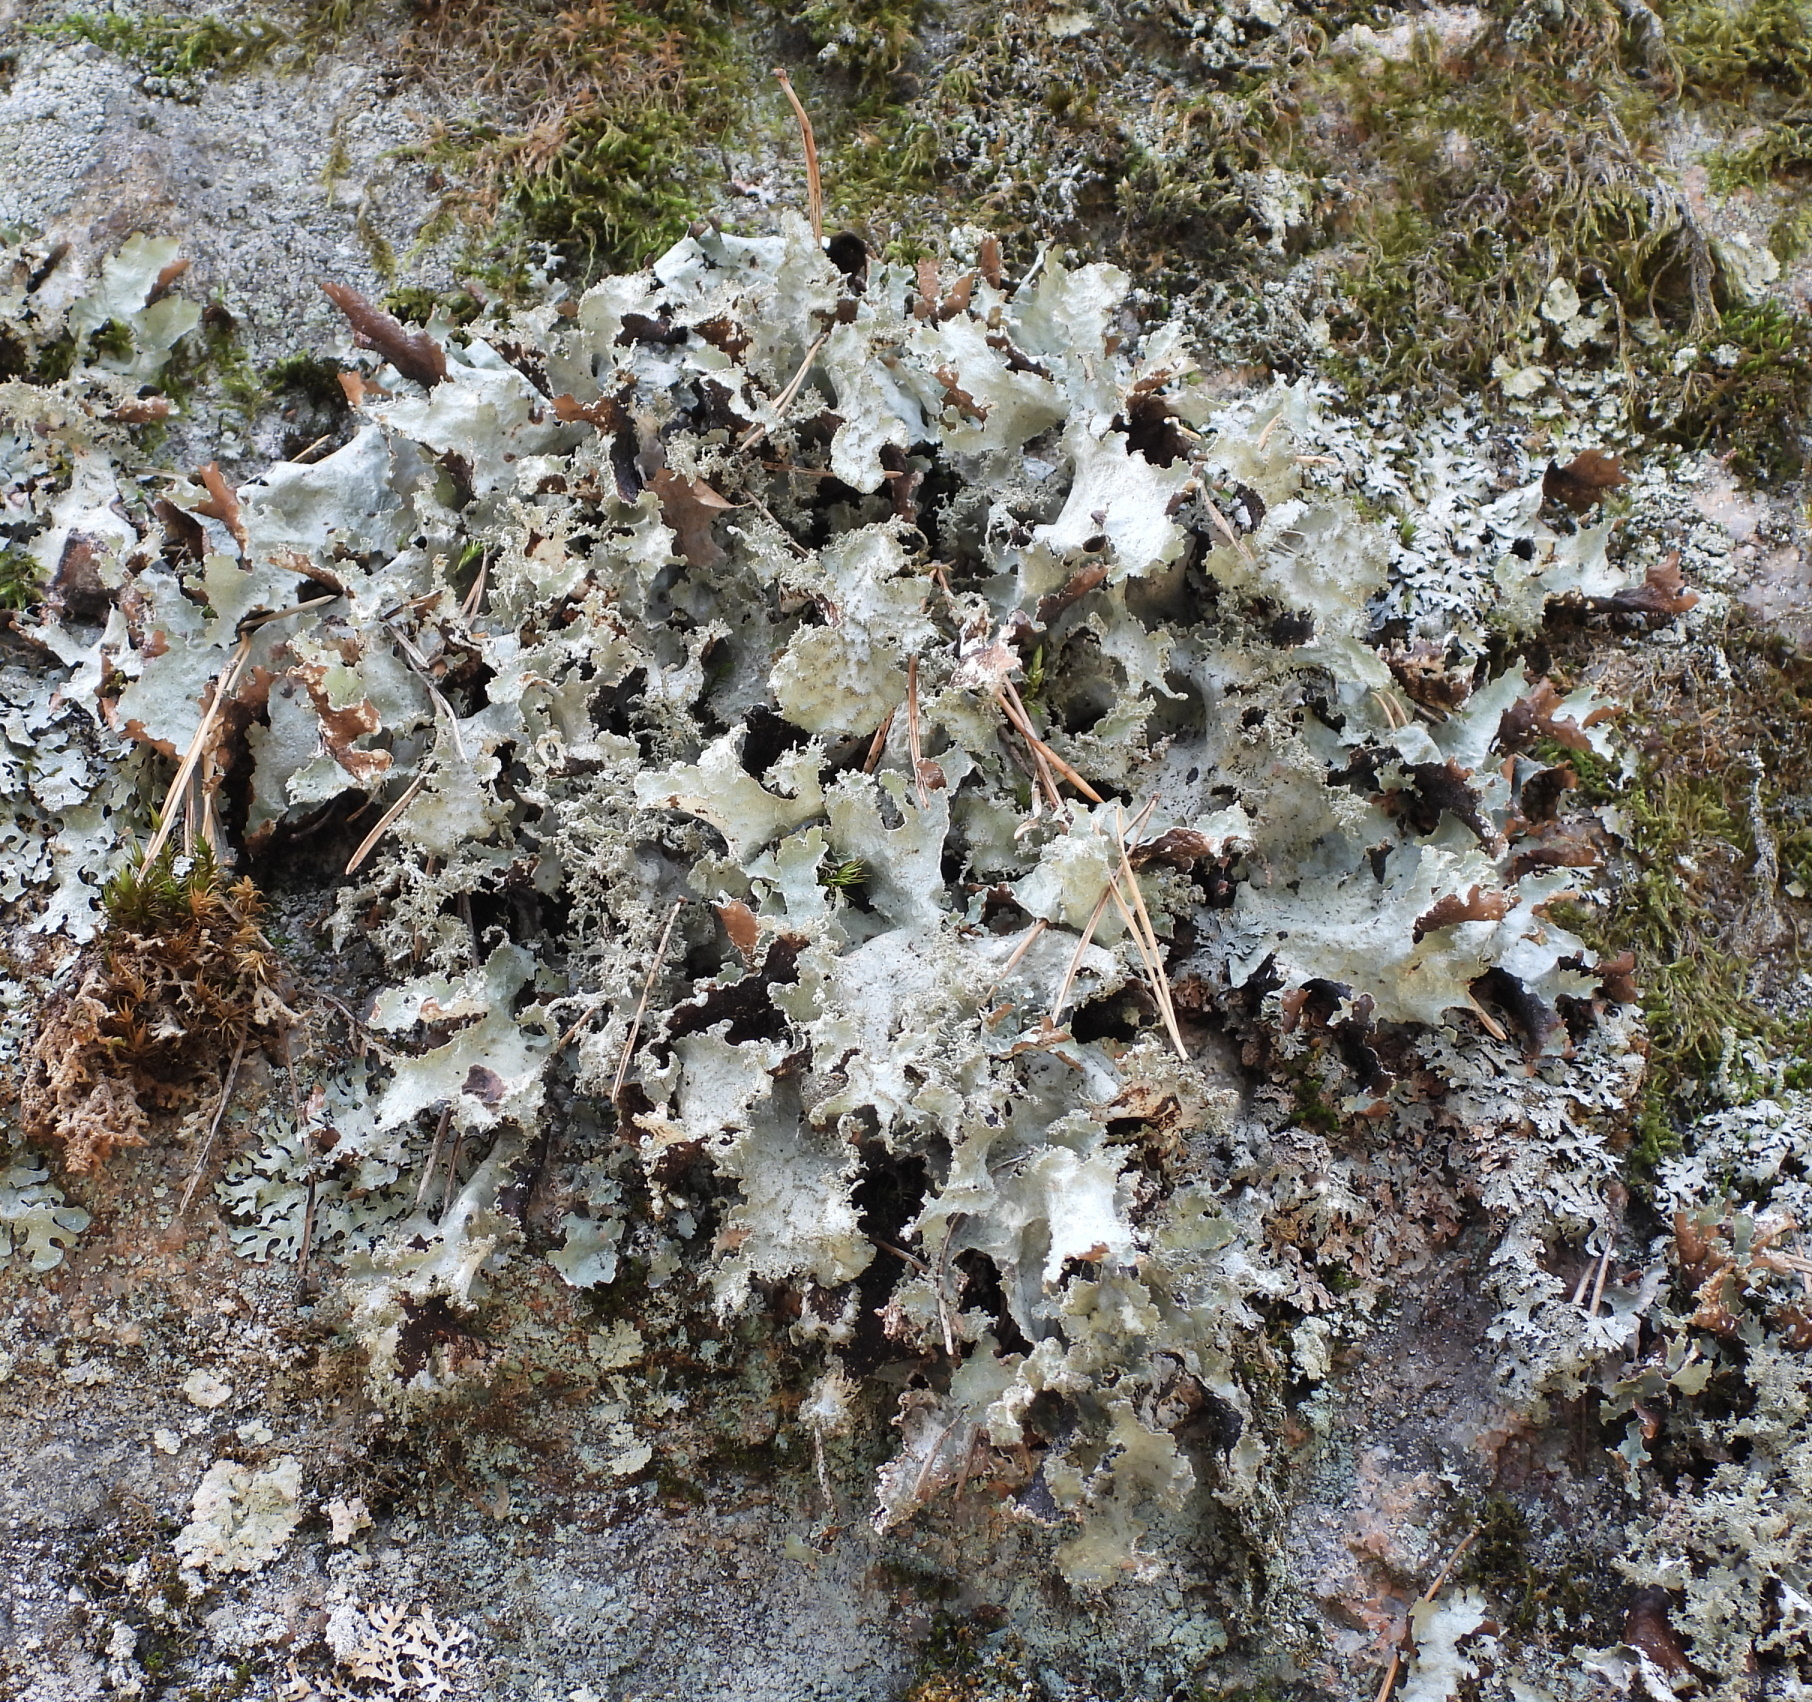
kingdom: Fungi
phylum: Ascomycota
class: Lecanoromycetes
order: Lecanorales
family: Parmeliaceae
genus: Platismatia
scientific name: Platismatia glauca
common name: Varied rag lichen
